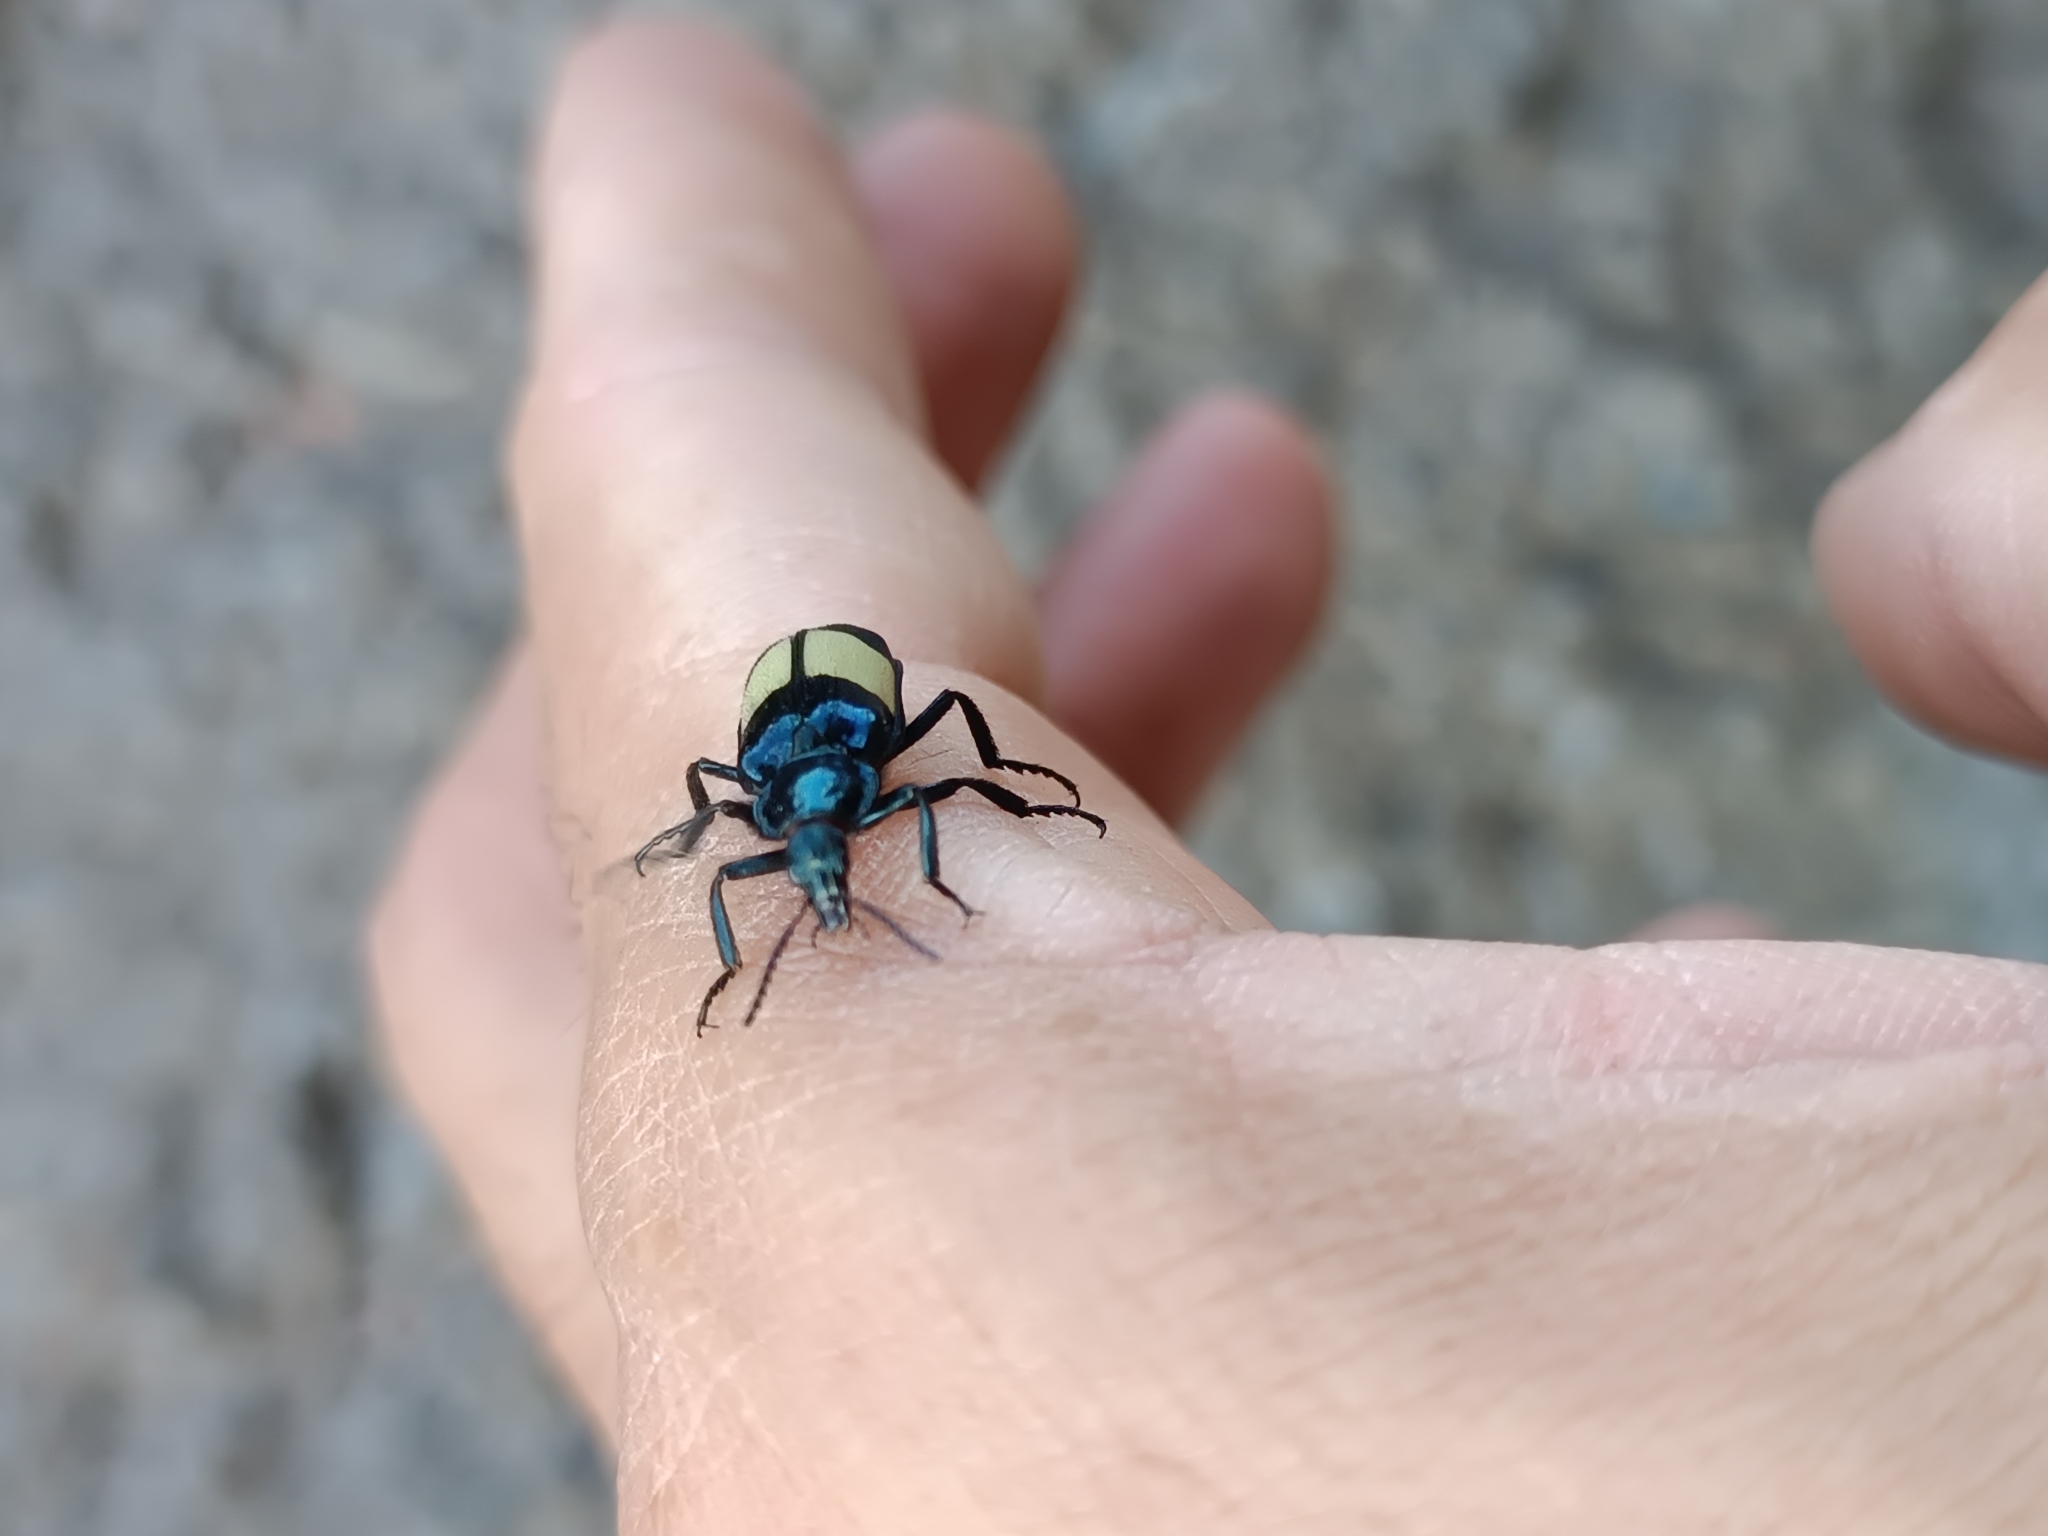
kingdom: Animalia
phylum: Arthropoda
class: Insecta
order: Coleoptera
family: Melyridae
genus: Astylus
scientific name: Astylus
